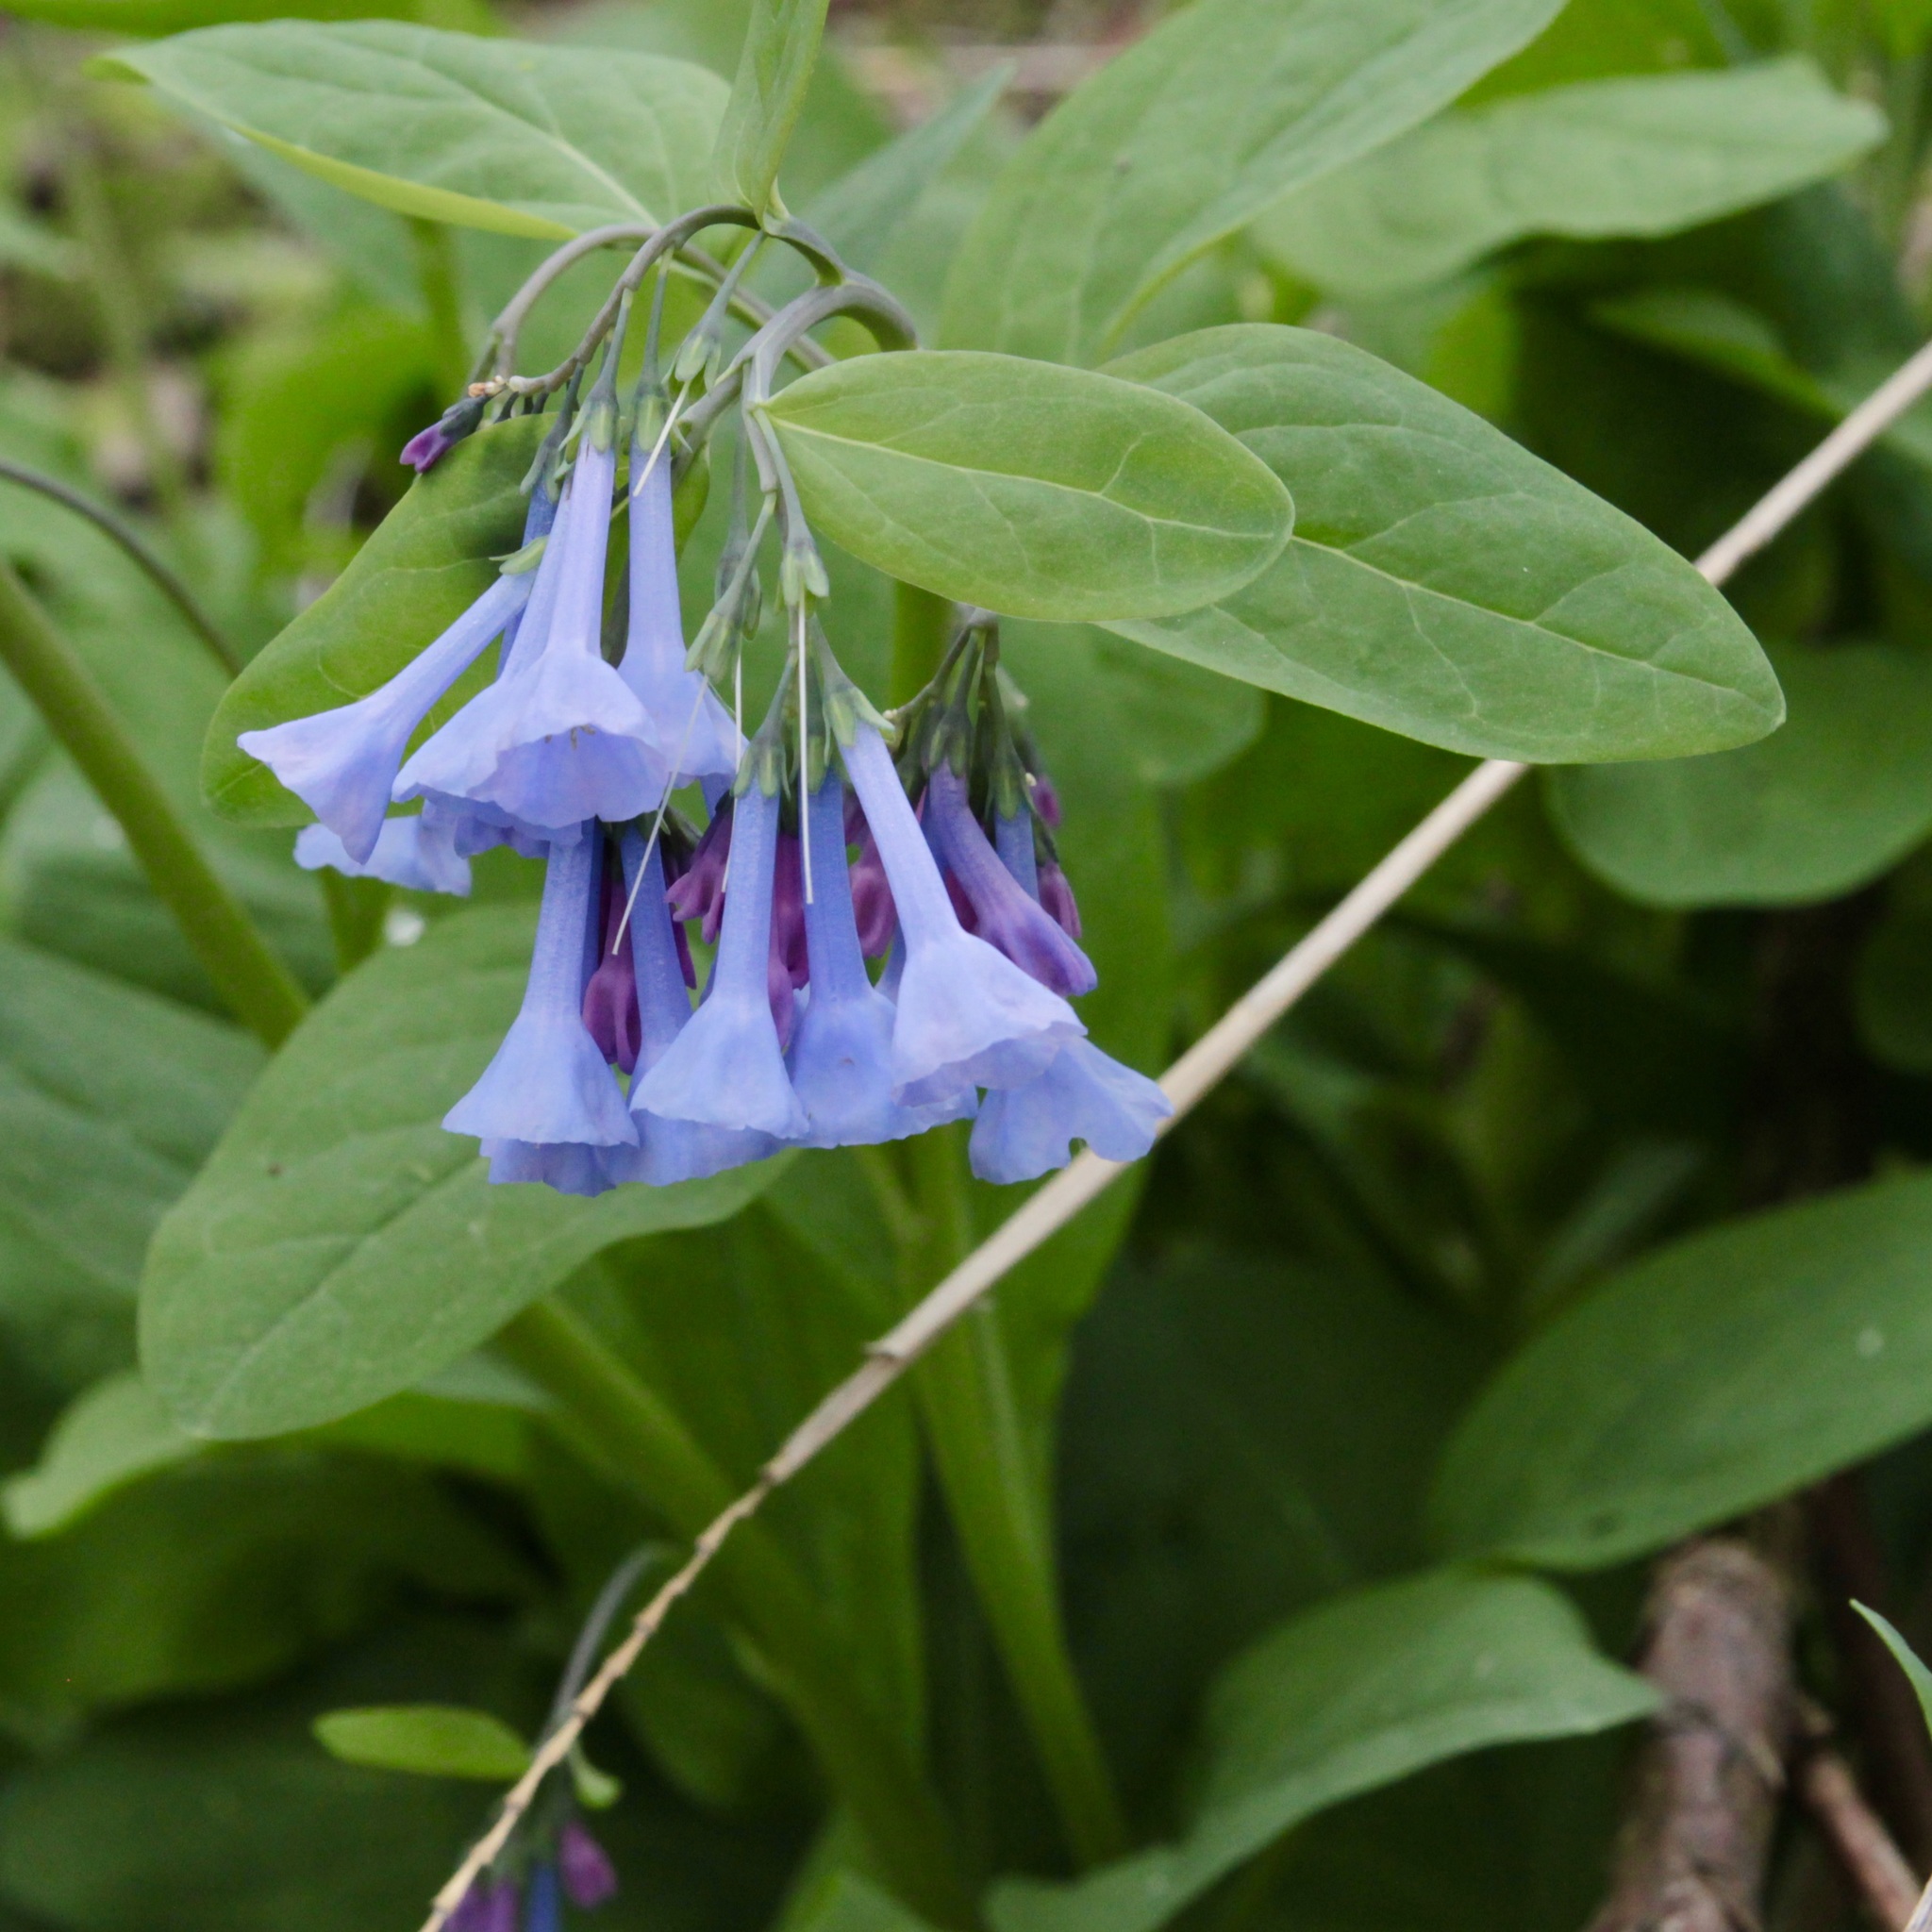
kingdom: Plantae
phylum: Tracheophyta
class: Magnoliopsida
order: Boraginales
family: Boraginaceae
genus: Mertensia
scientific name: Mertensia virginica
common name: Virginia bluebells
